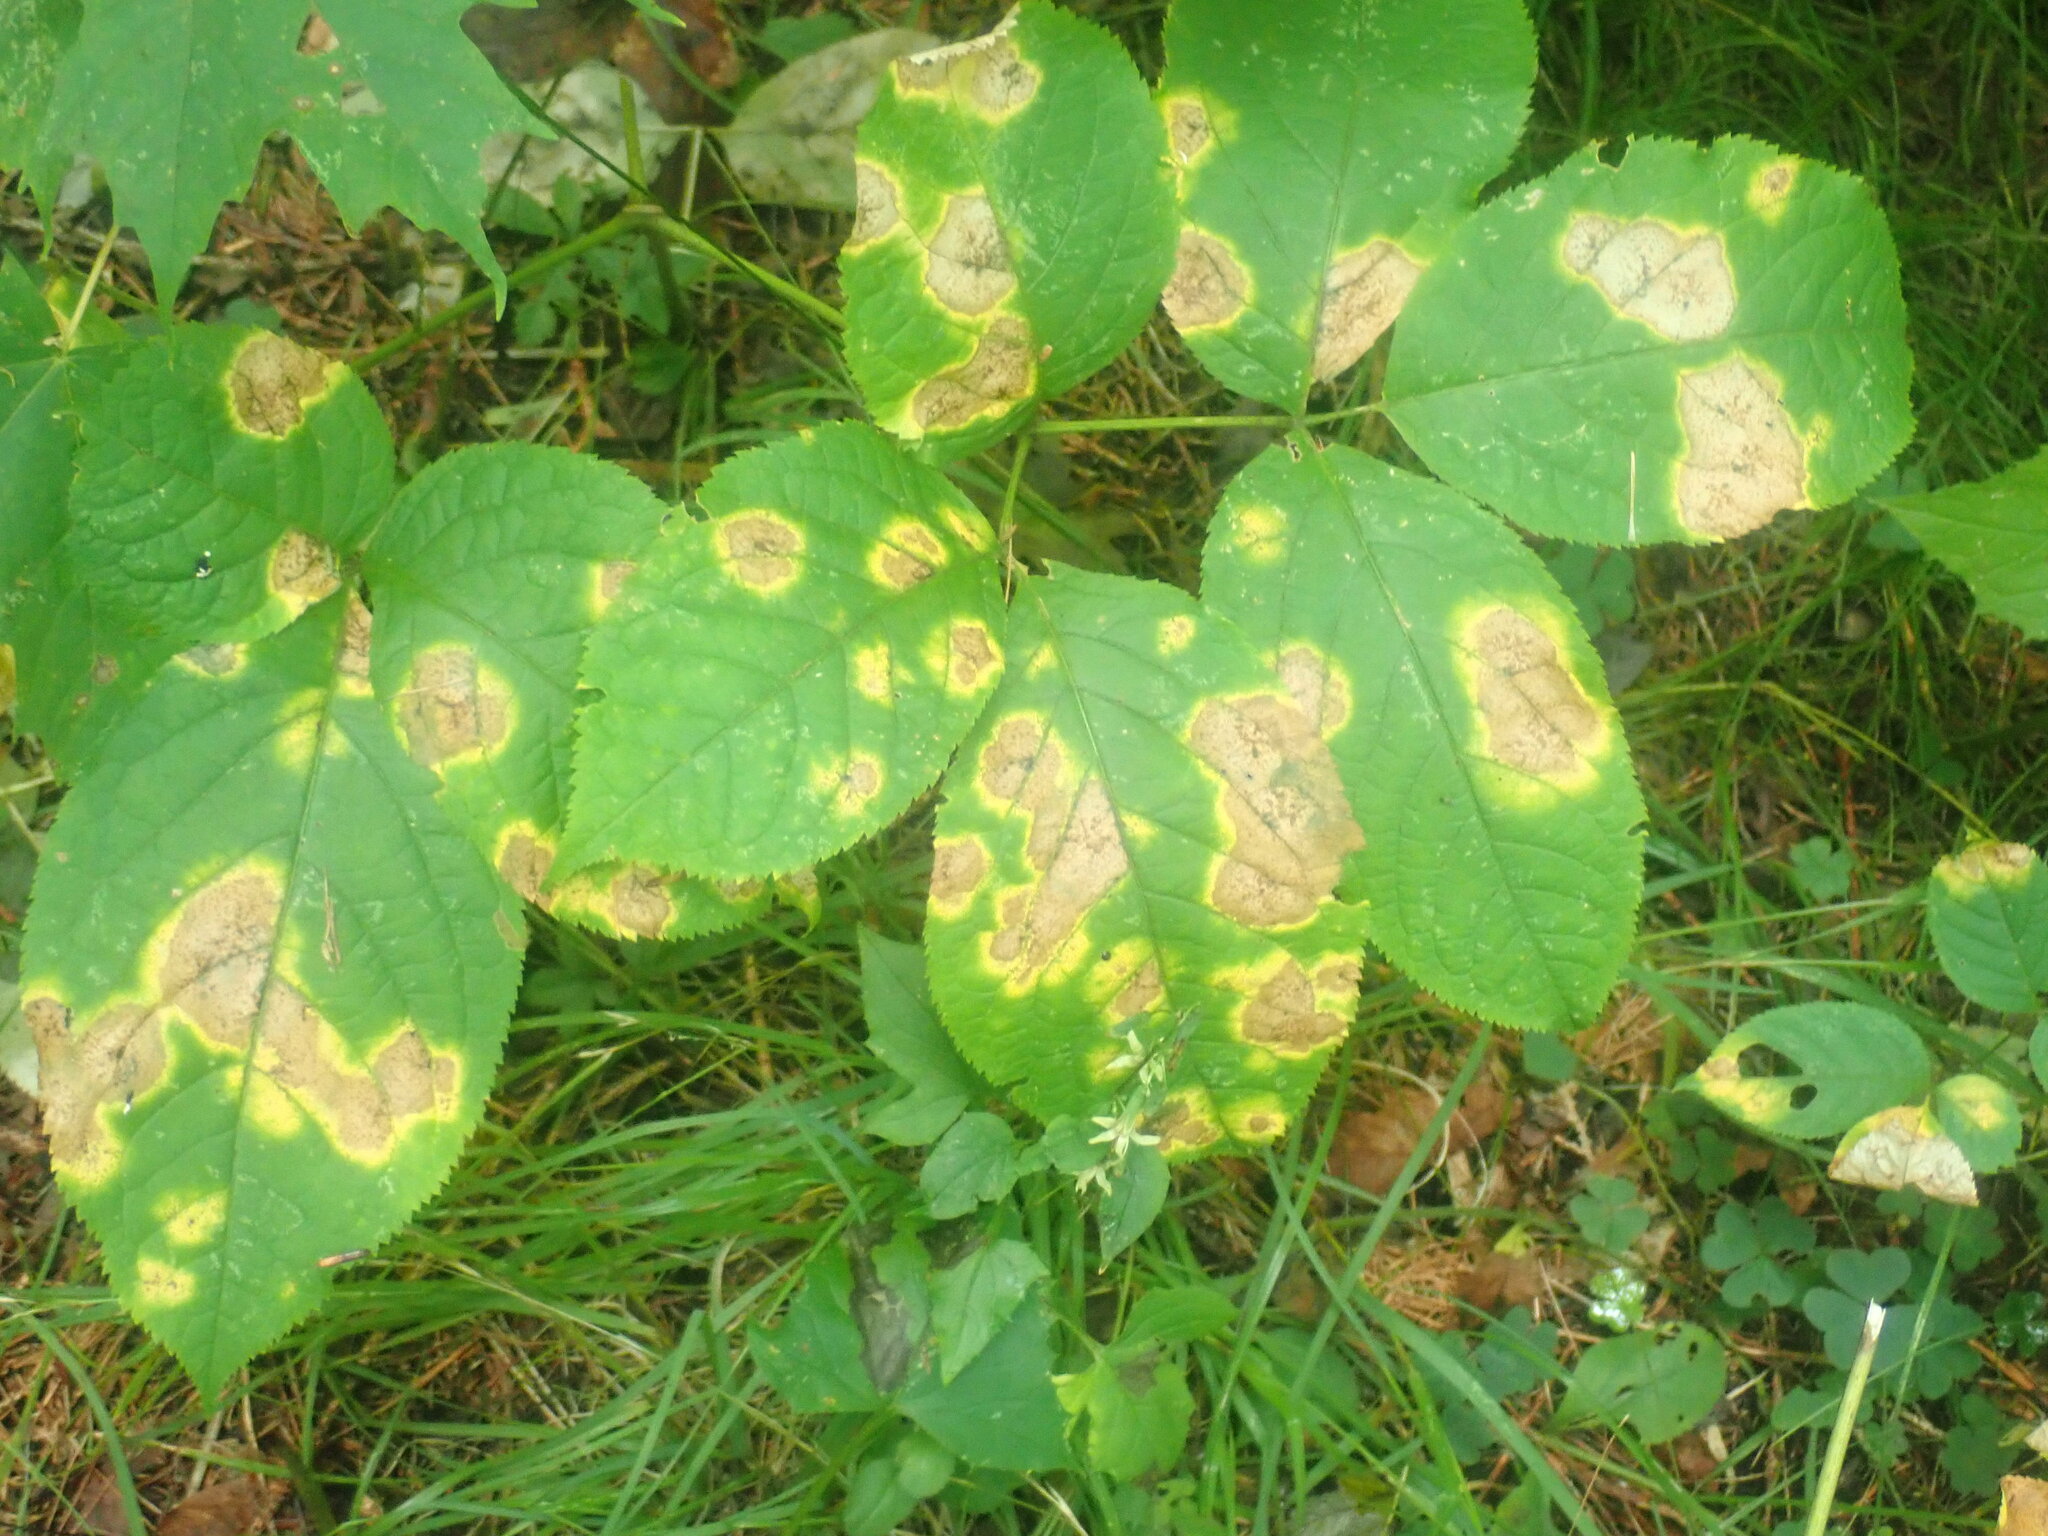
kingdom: Plantae
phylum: Tracheophyta
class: Magnoliopsida
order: Apiales
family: Araliaceae
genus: Aralia
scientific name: Aralia nudicaulis
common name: Wild sarsaparilla
